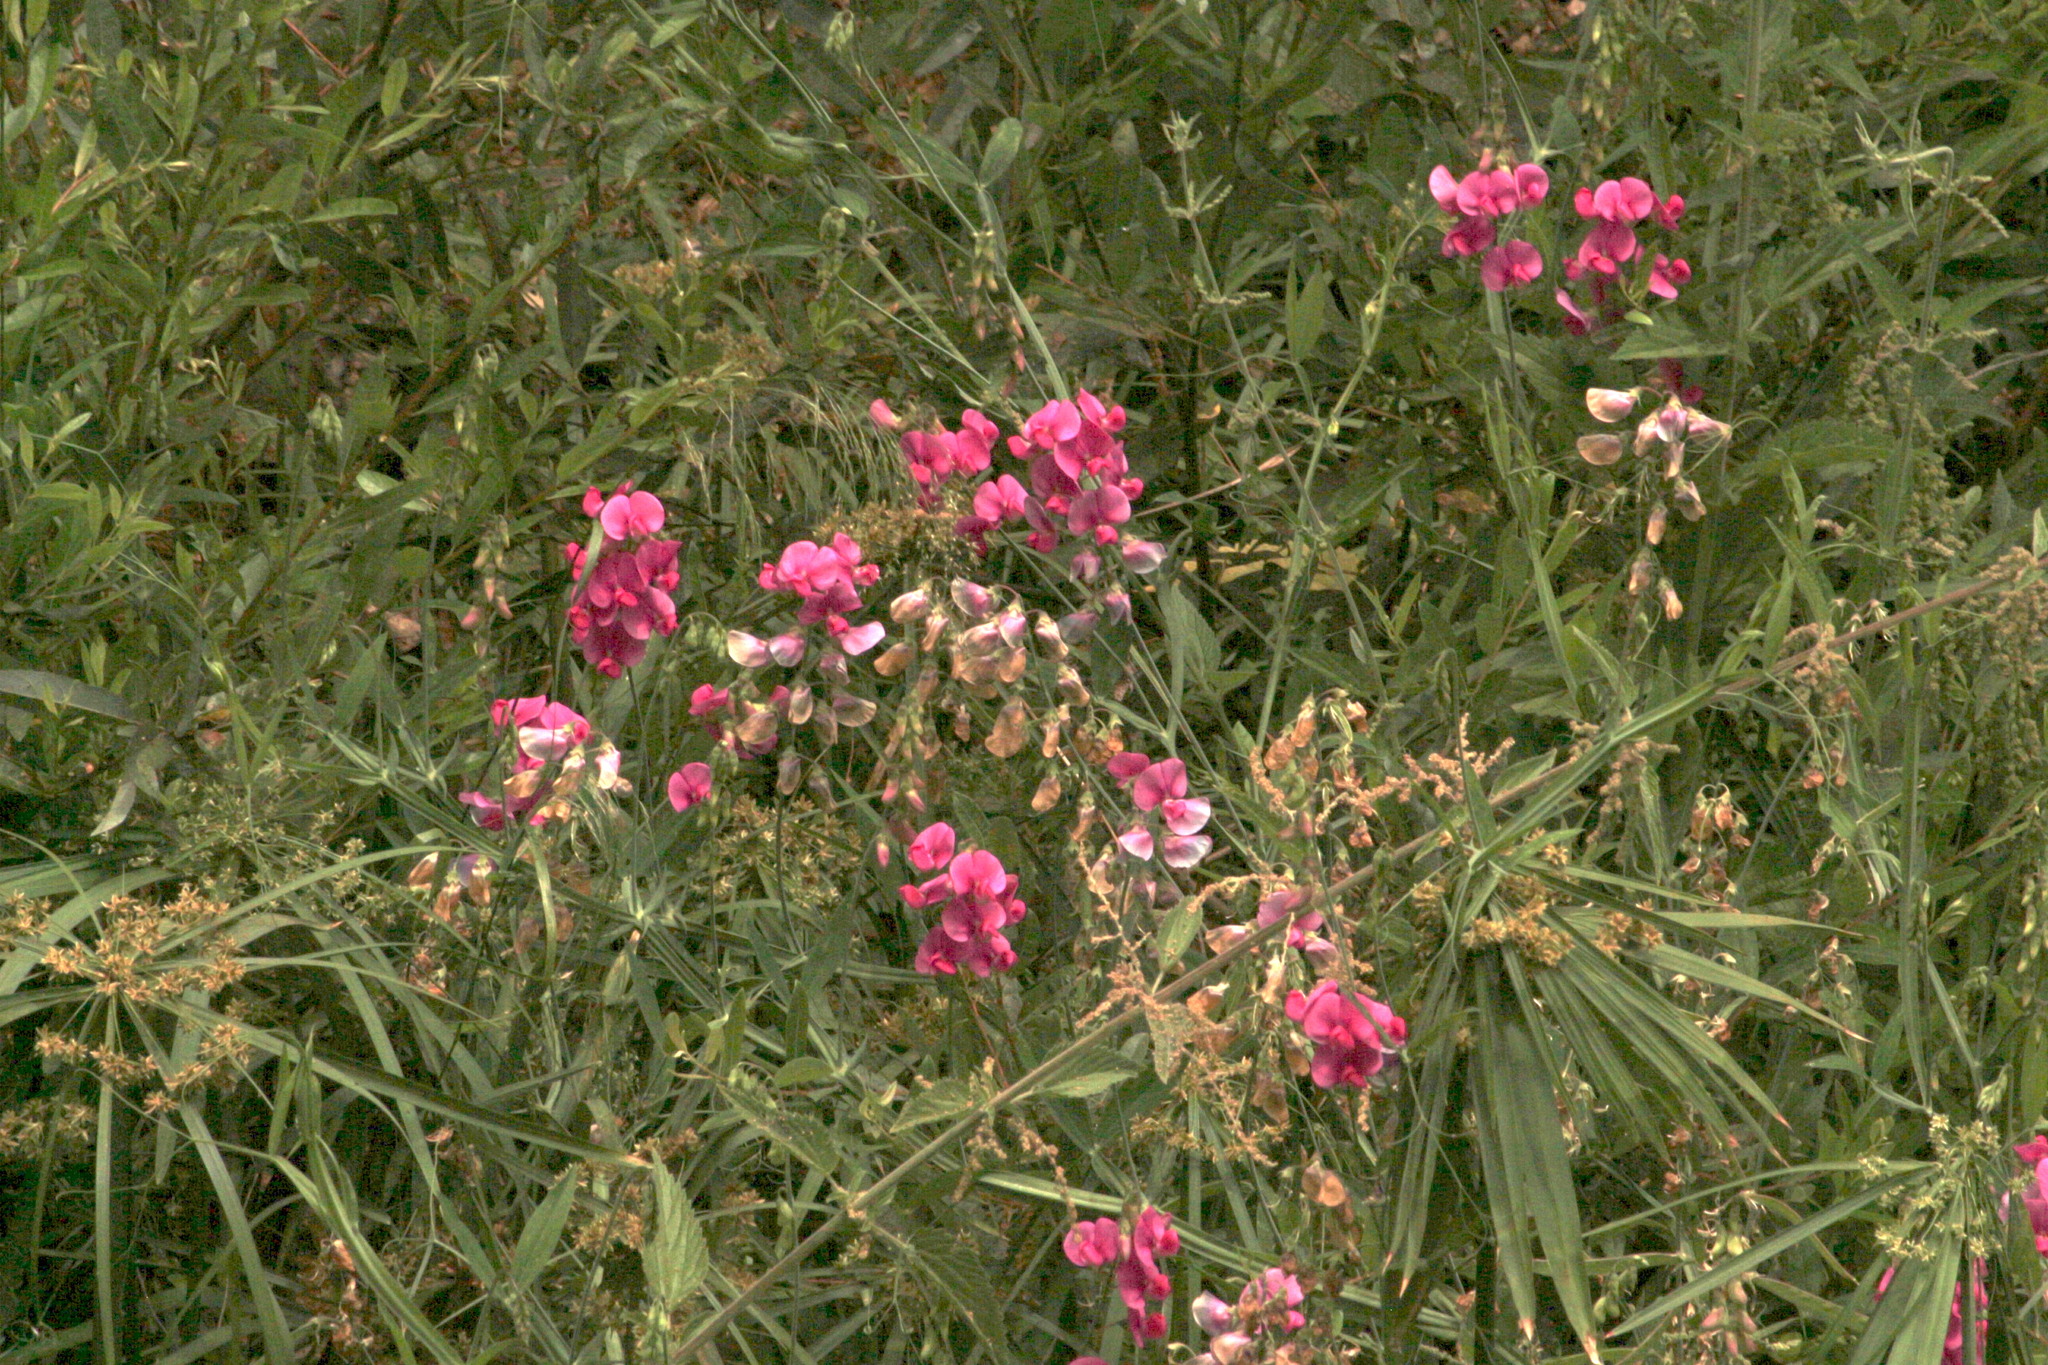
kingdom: Plantae
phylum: Tracheophyta
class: Magnoliopsida
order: Fabales
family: Fabaceae
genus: Lathyrus
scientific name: Lathyrus latifolius
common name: Perennial pea
